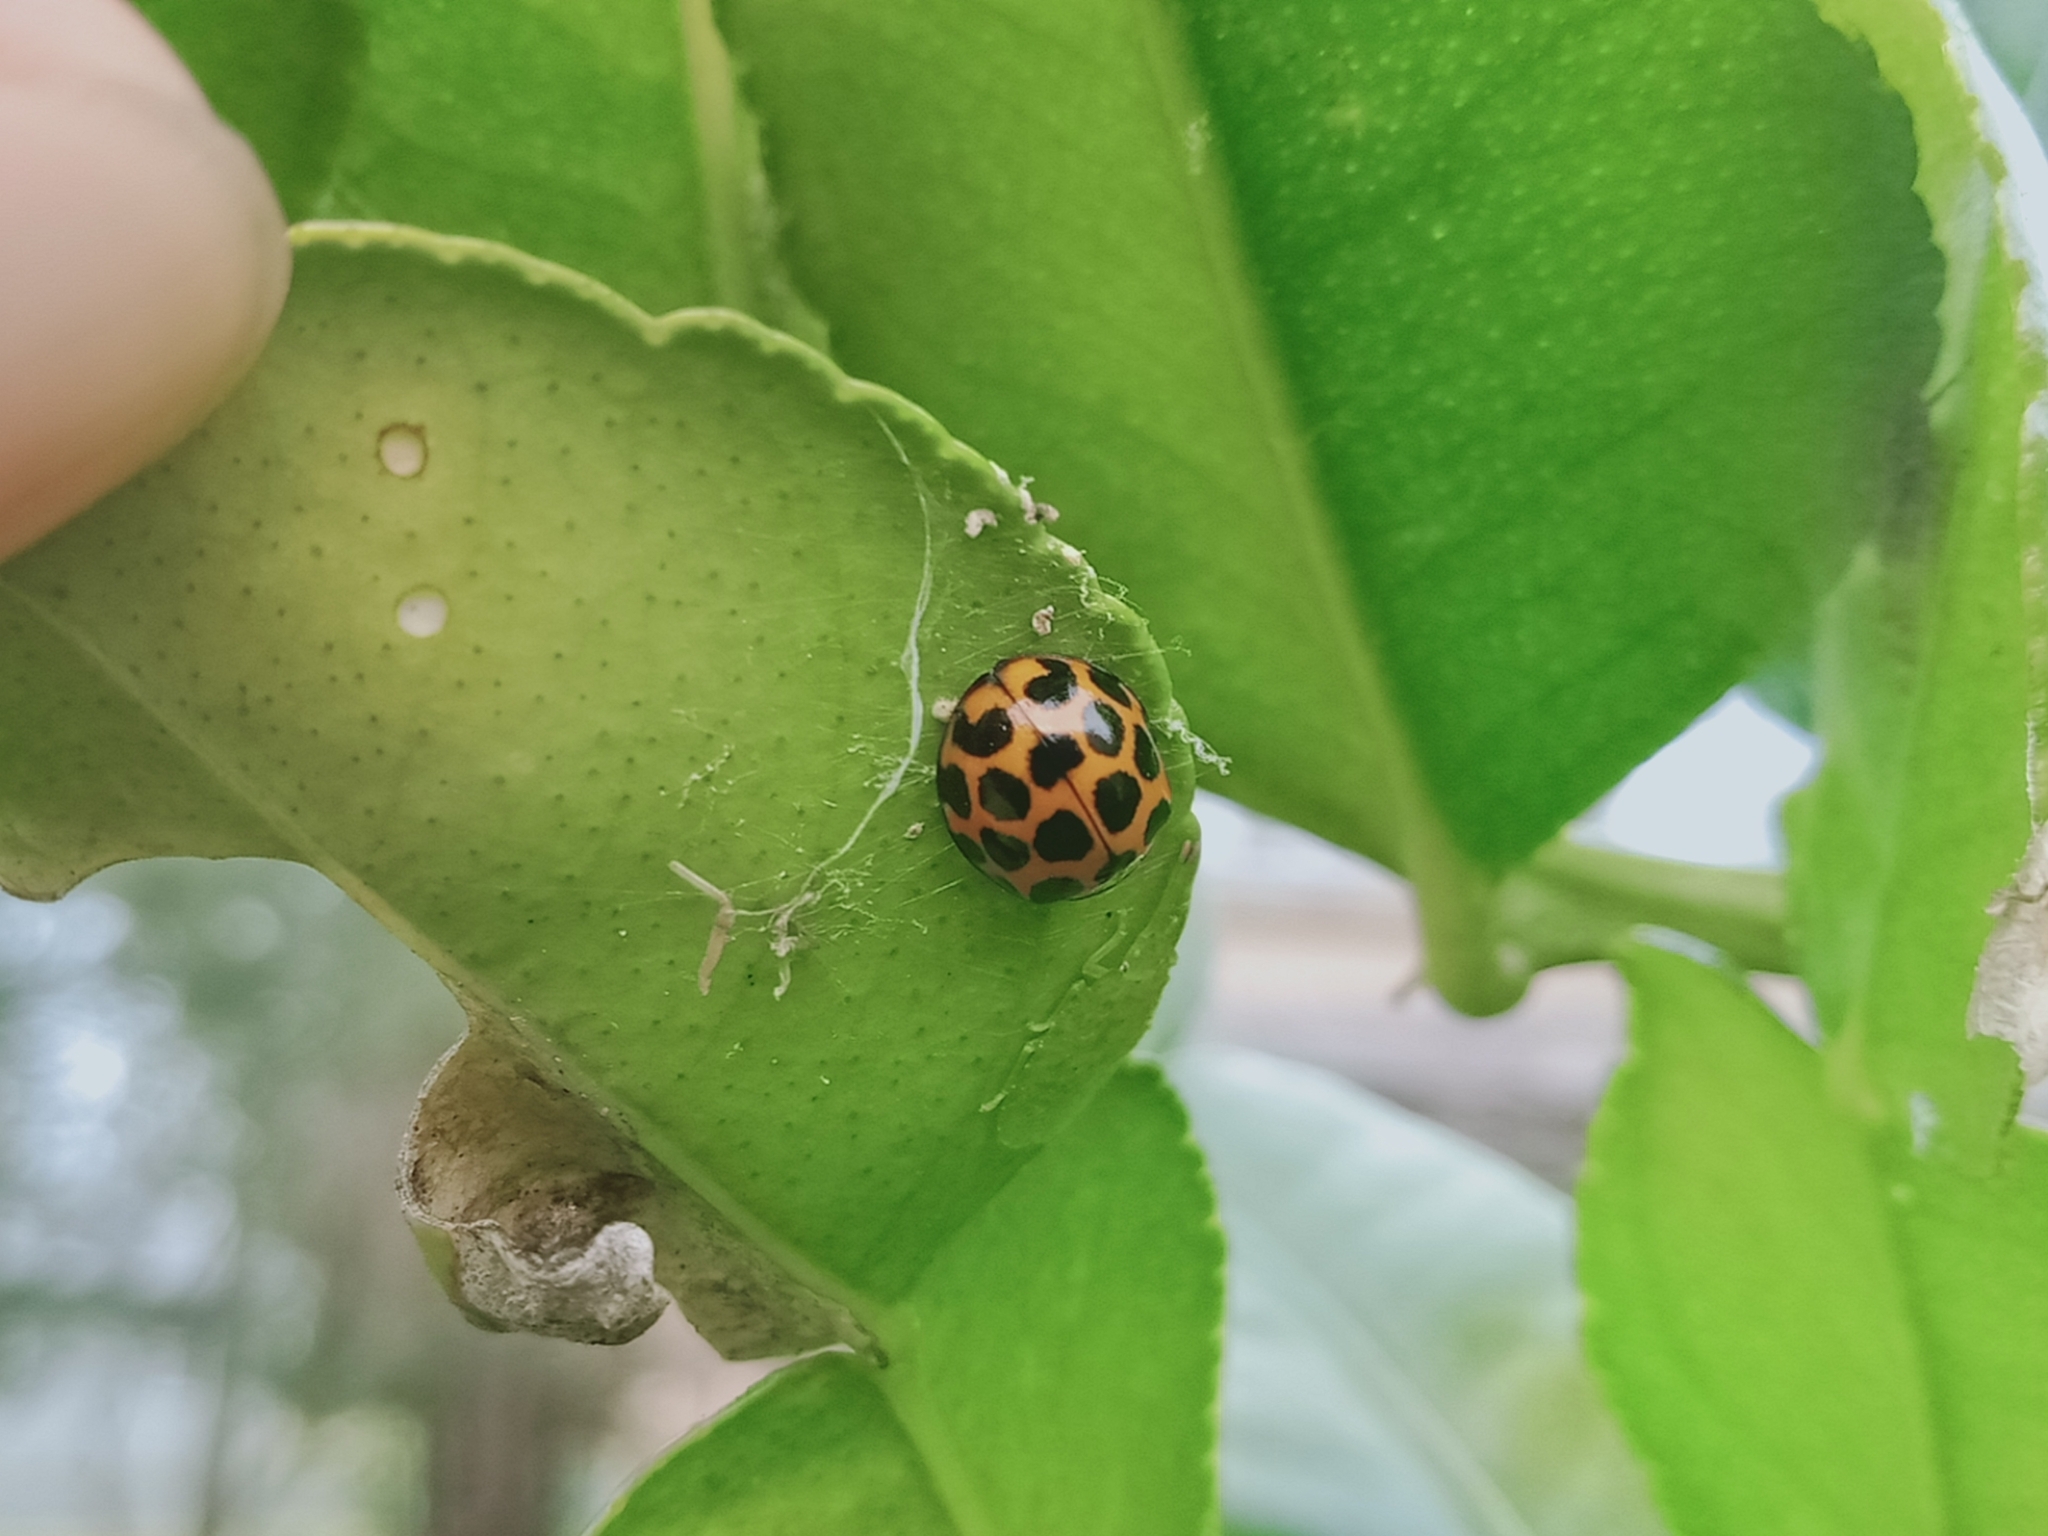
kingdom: Animalia
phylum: Arthropoda
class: Insecta
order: Coleoptera
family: Coccinellidae
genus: Harmonia
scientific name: Harmonia conformis
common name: Common spotted ladybird beetle
